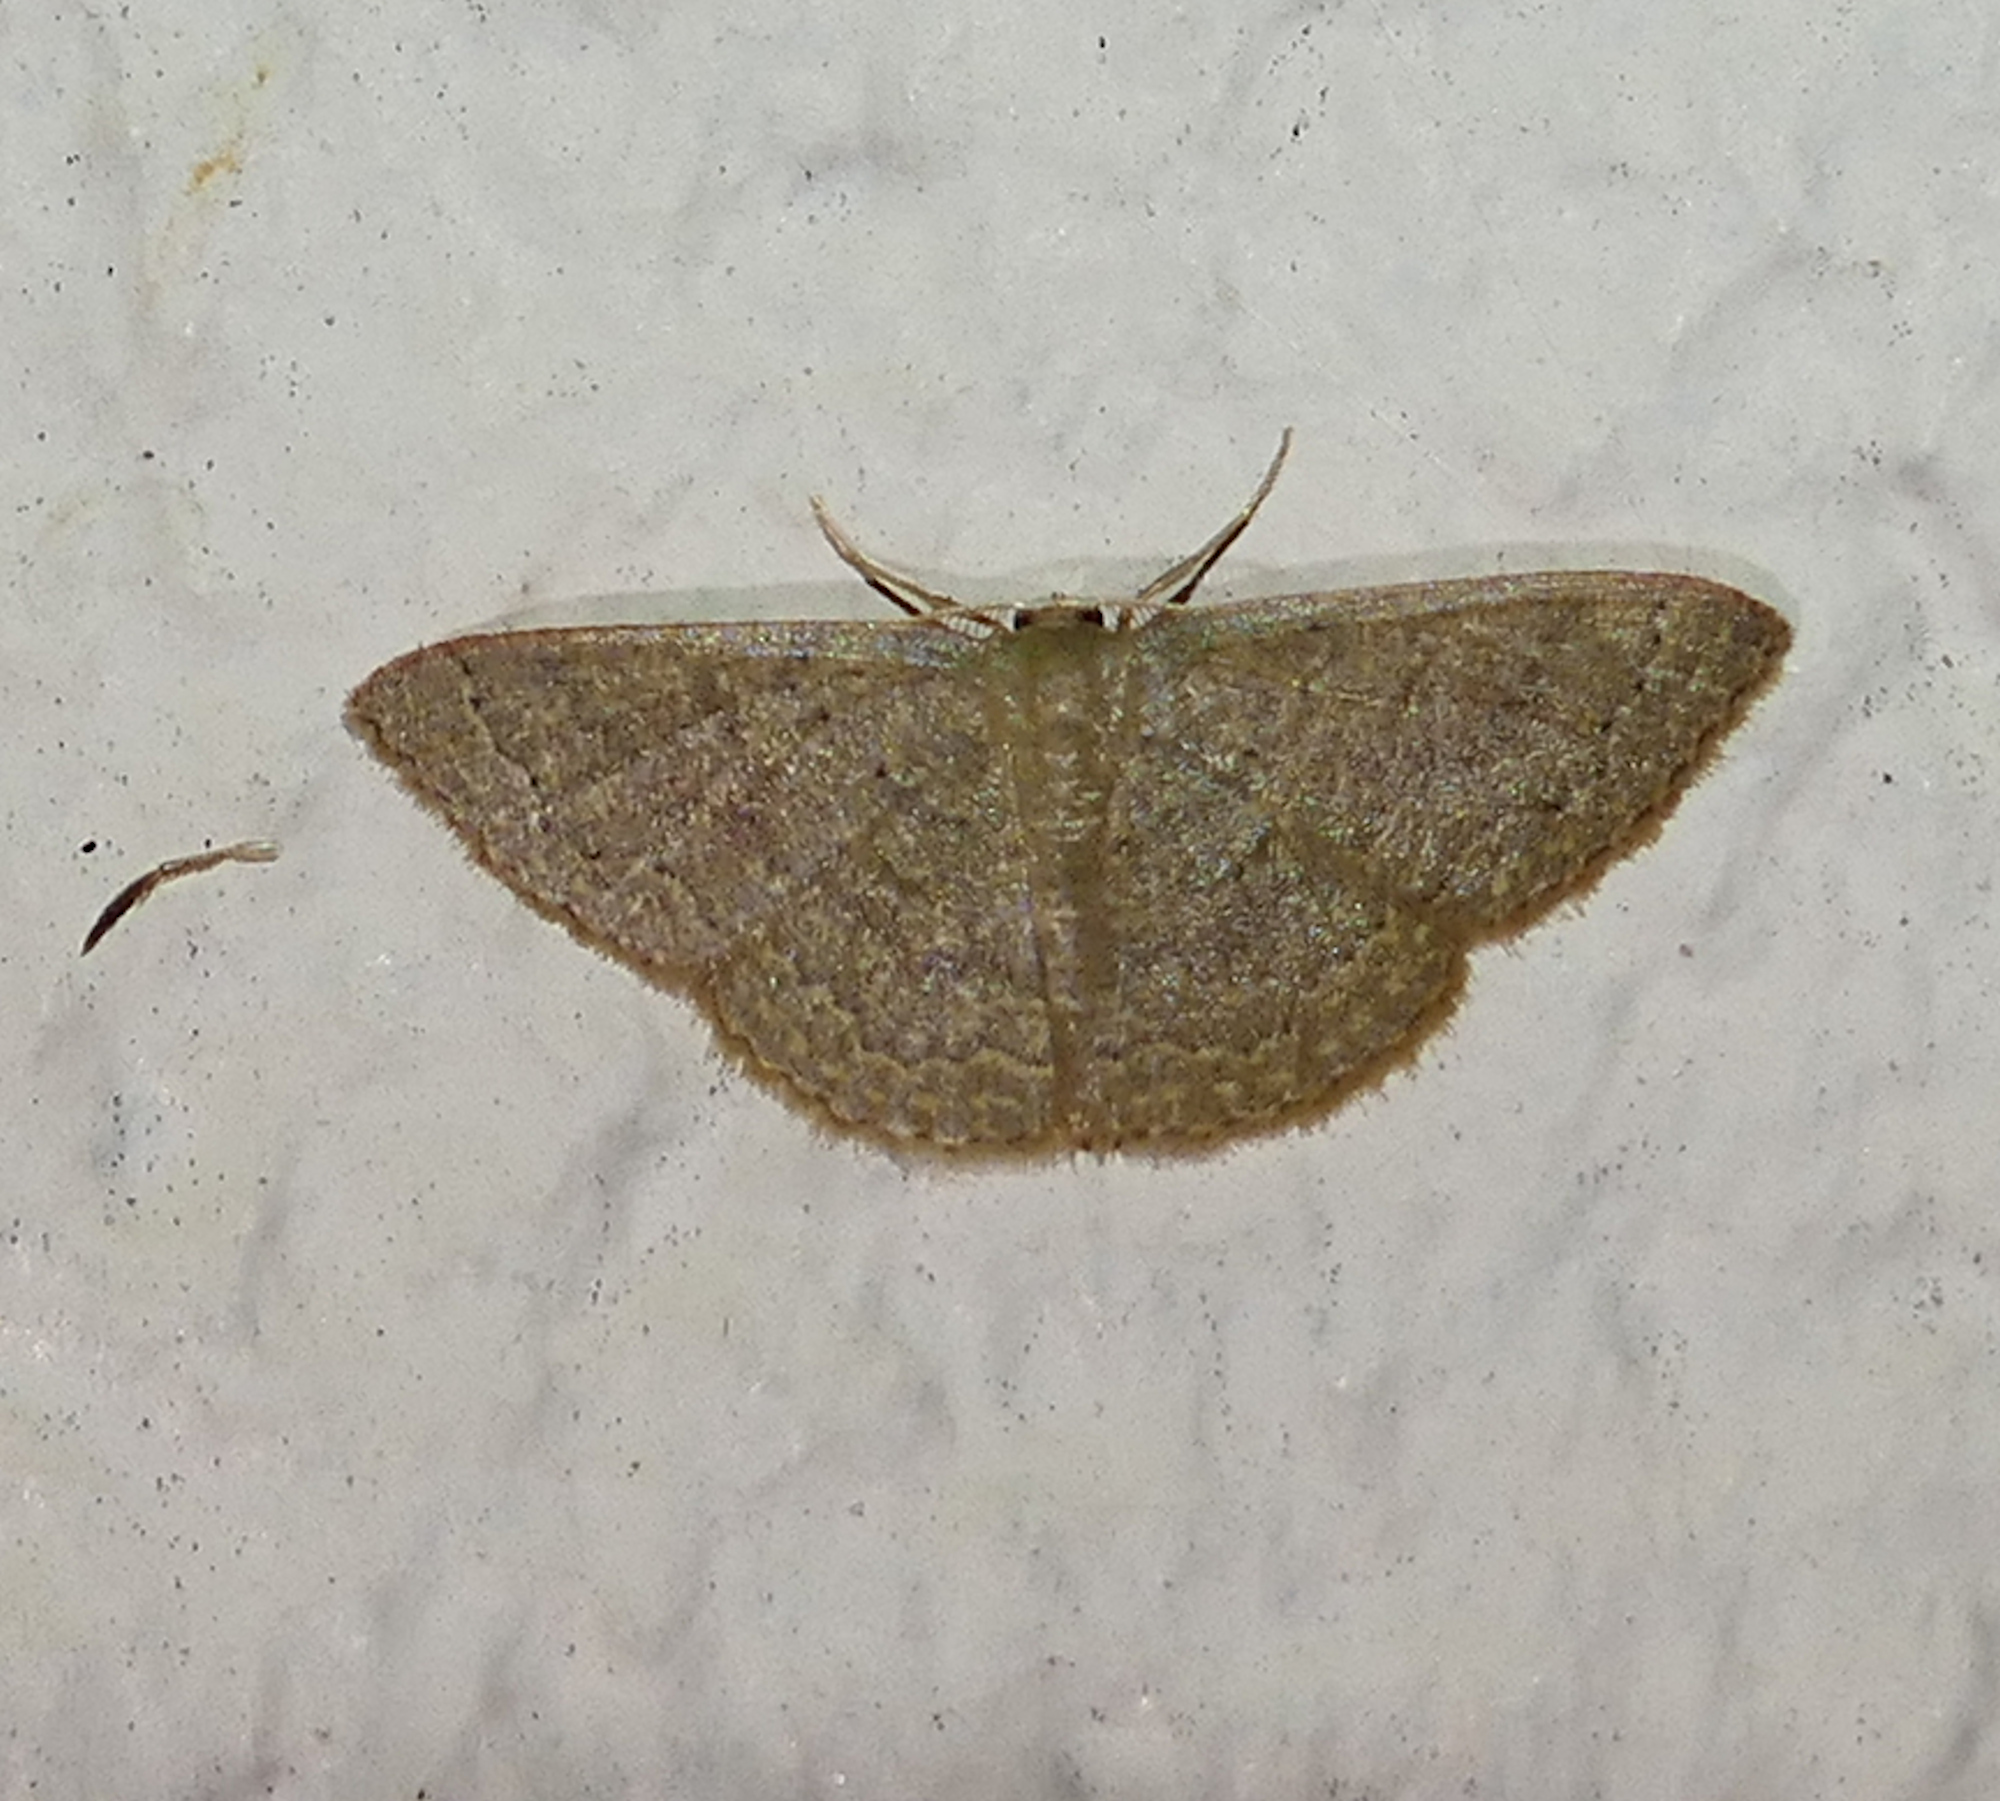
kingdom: Animalia
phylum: Arthropoda
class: Insecta
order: Lepidoptera
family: Geometridae
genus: Pleuroprucha
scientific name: Pleuroprucha insulsaria
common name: Common tan wave
